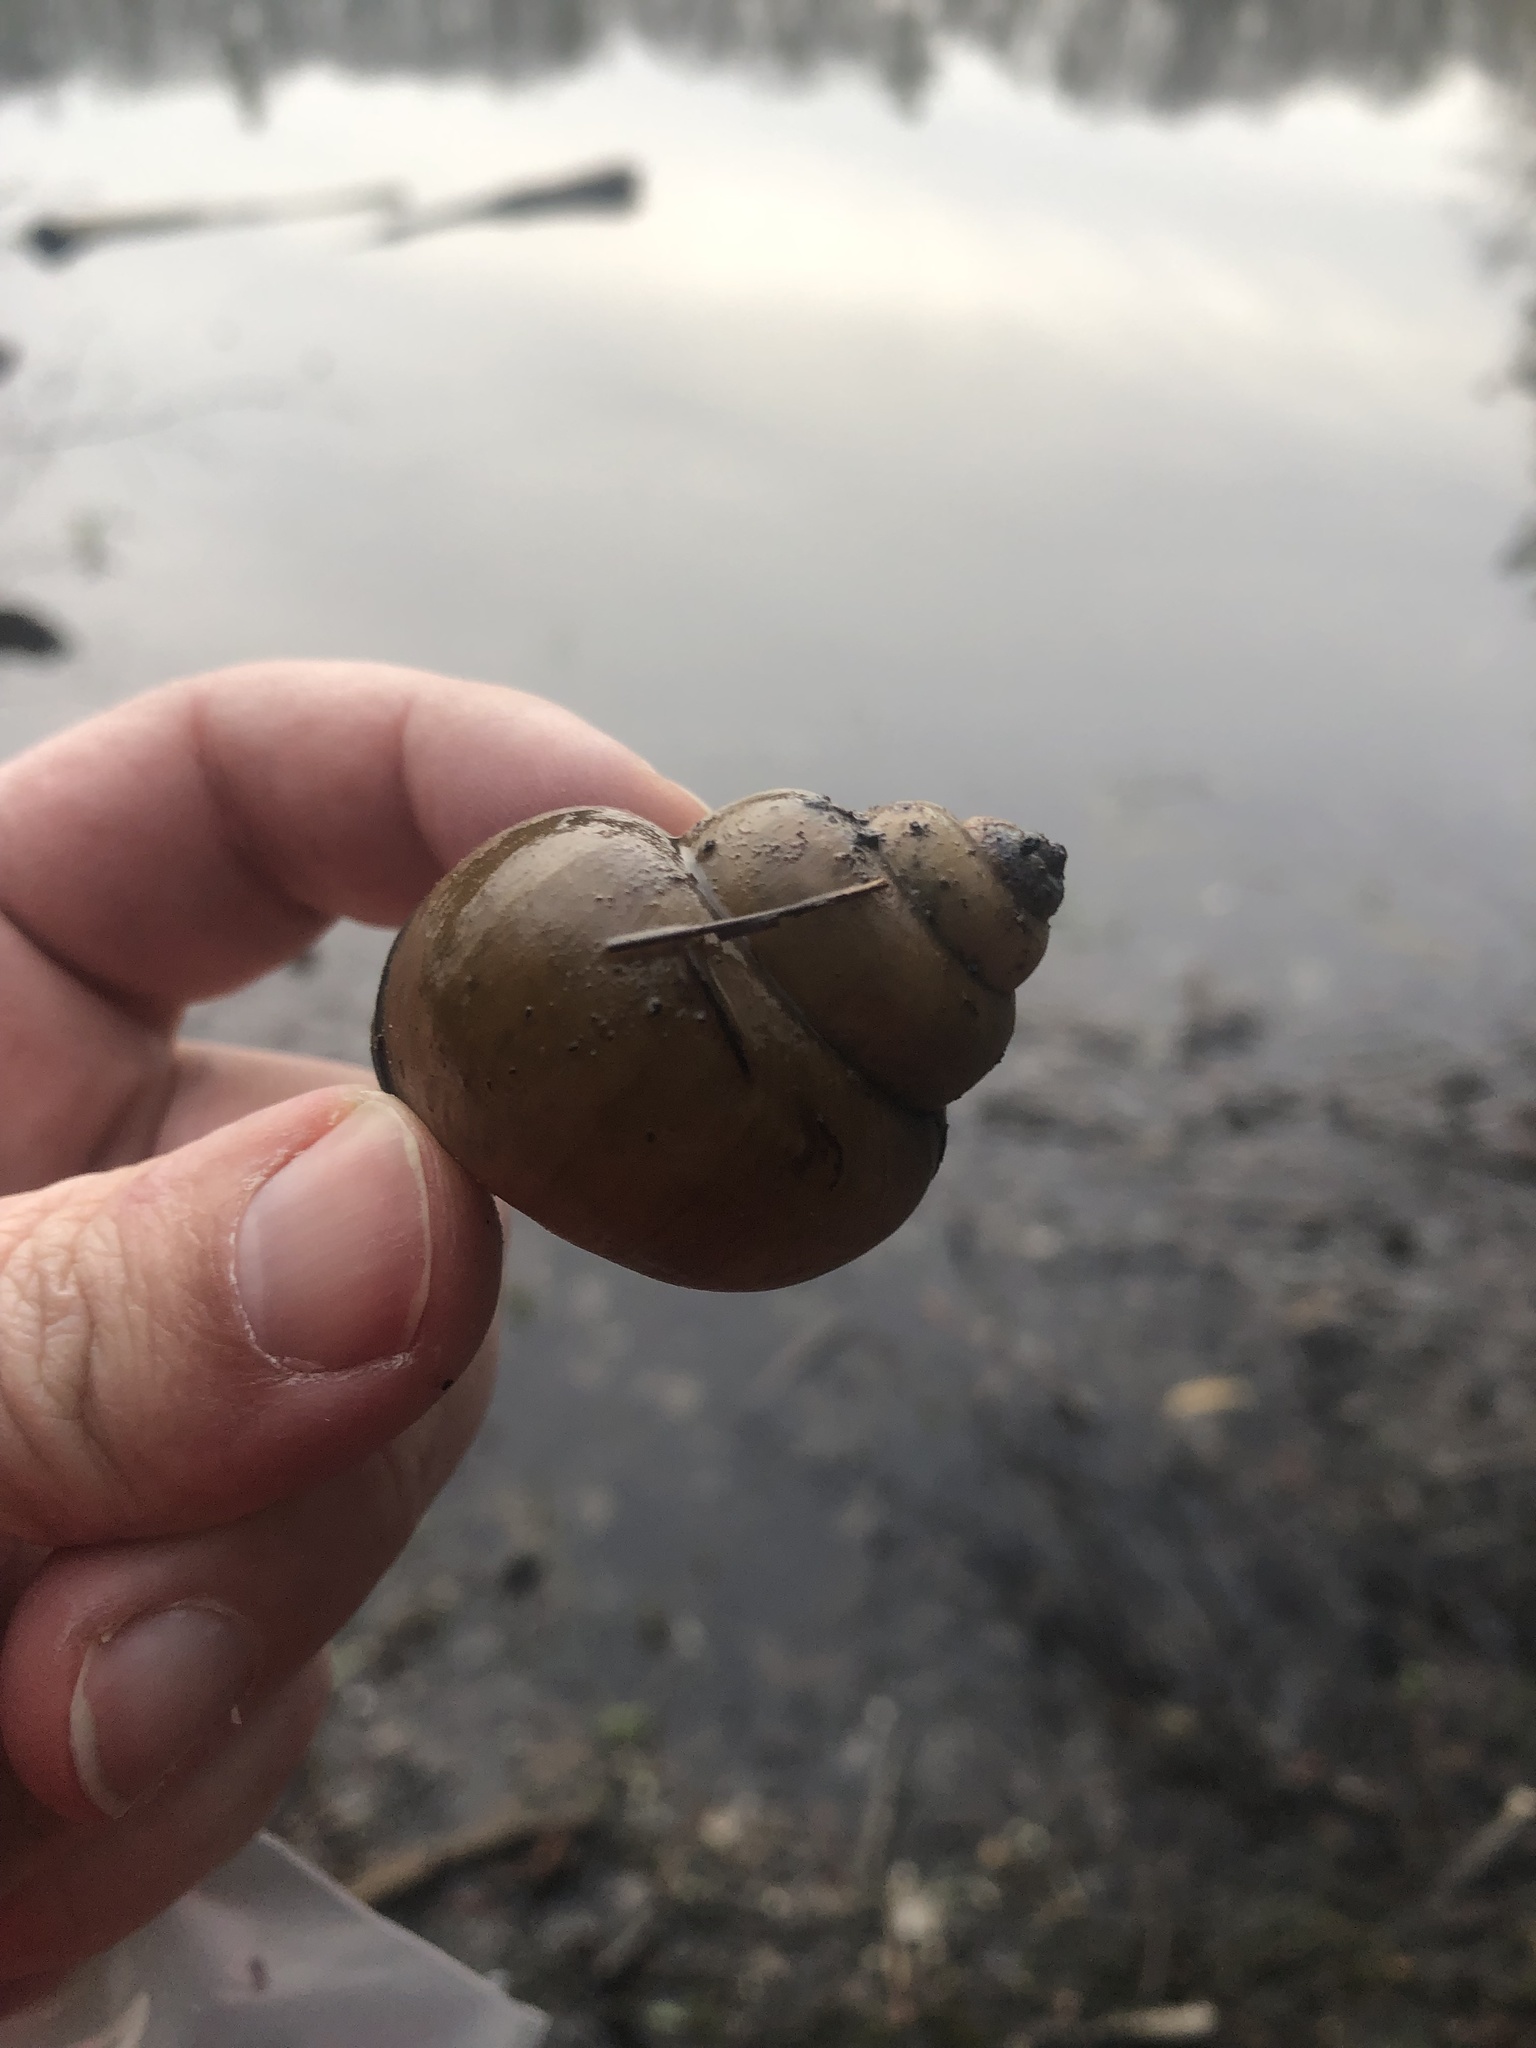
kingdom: Animalia
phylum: Mollusca
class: Gastropoda
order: Architaenioglossa
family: Viviparidae
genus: Cipangopaludina
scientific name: Cipangopaludina chinensis
